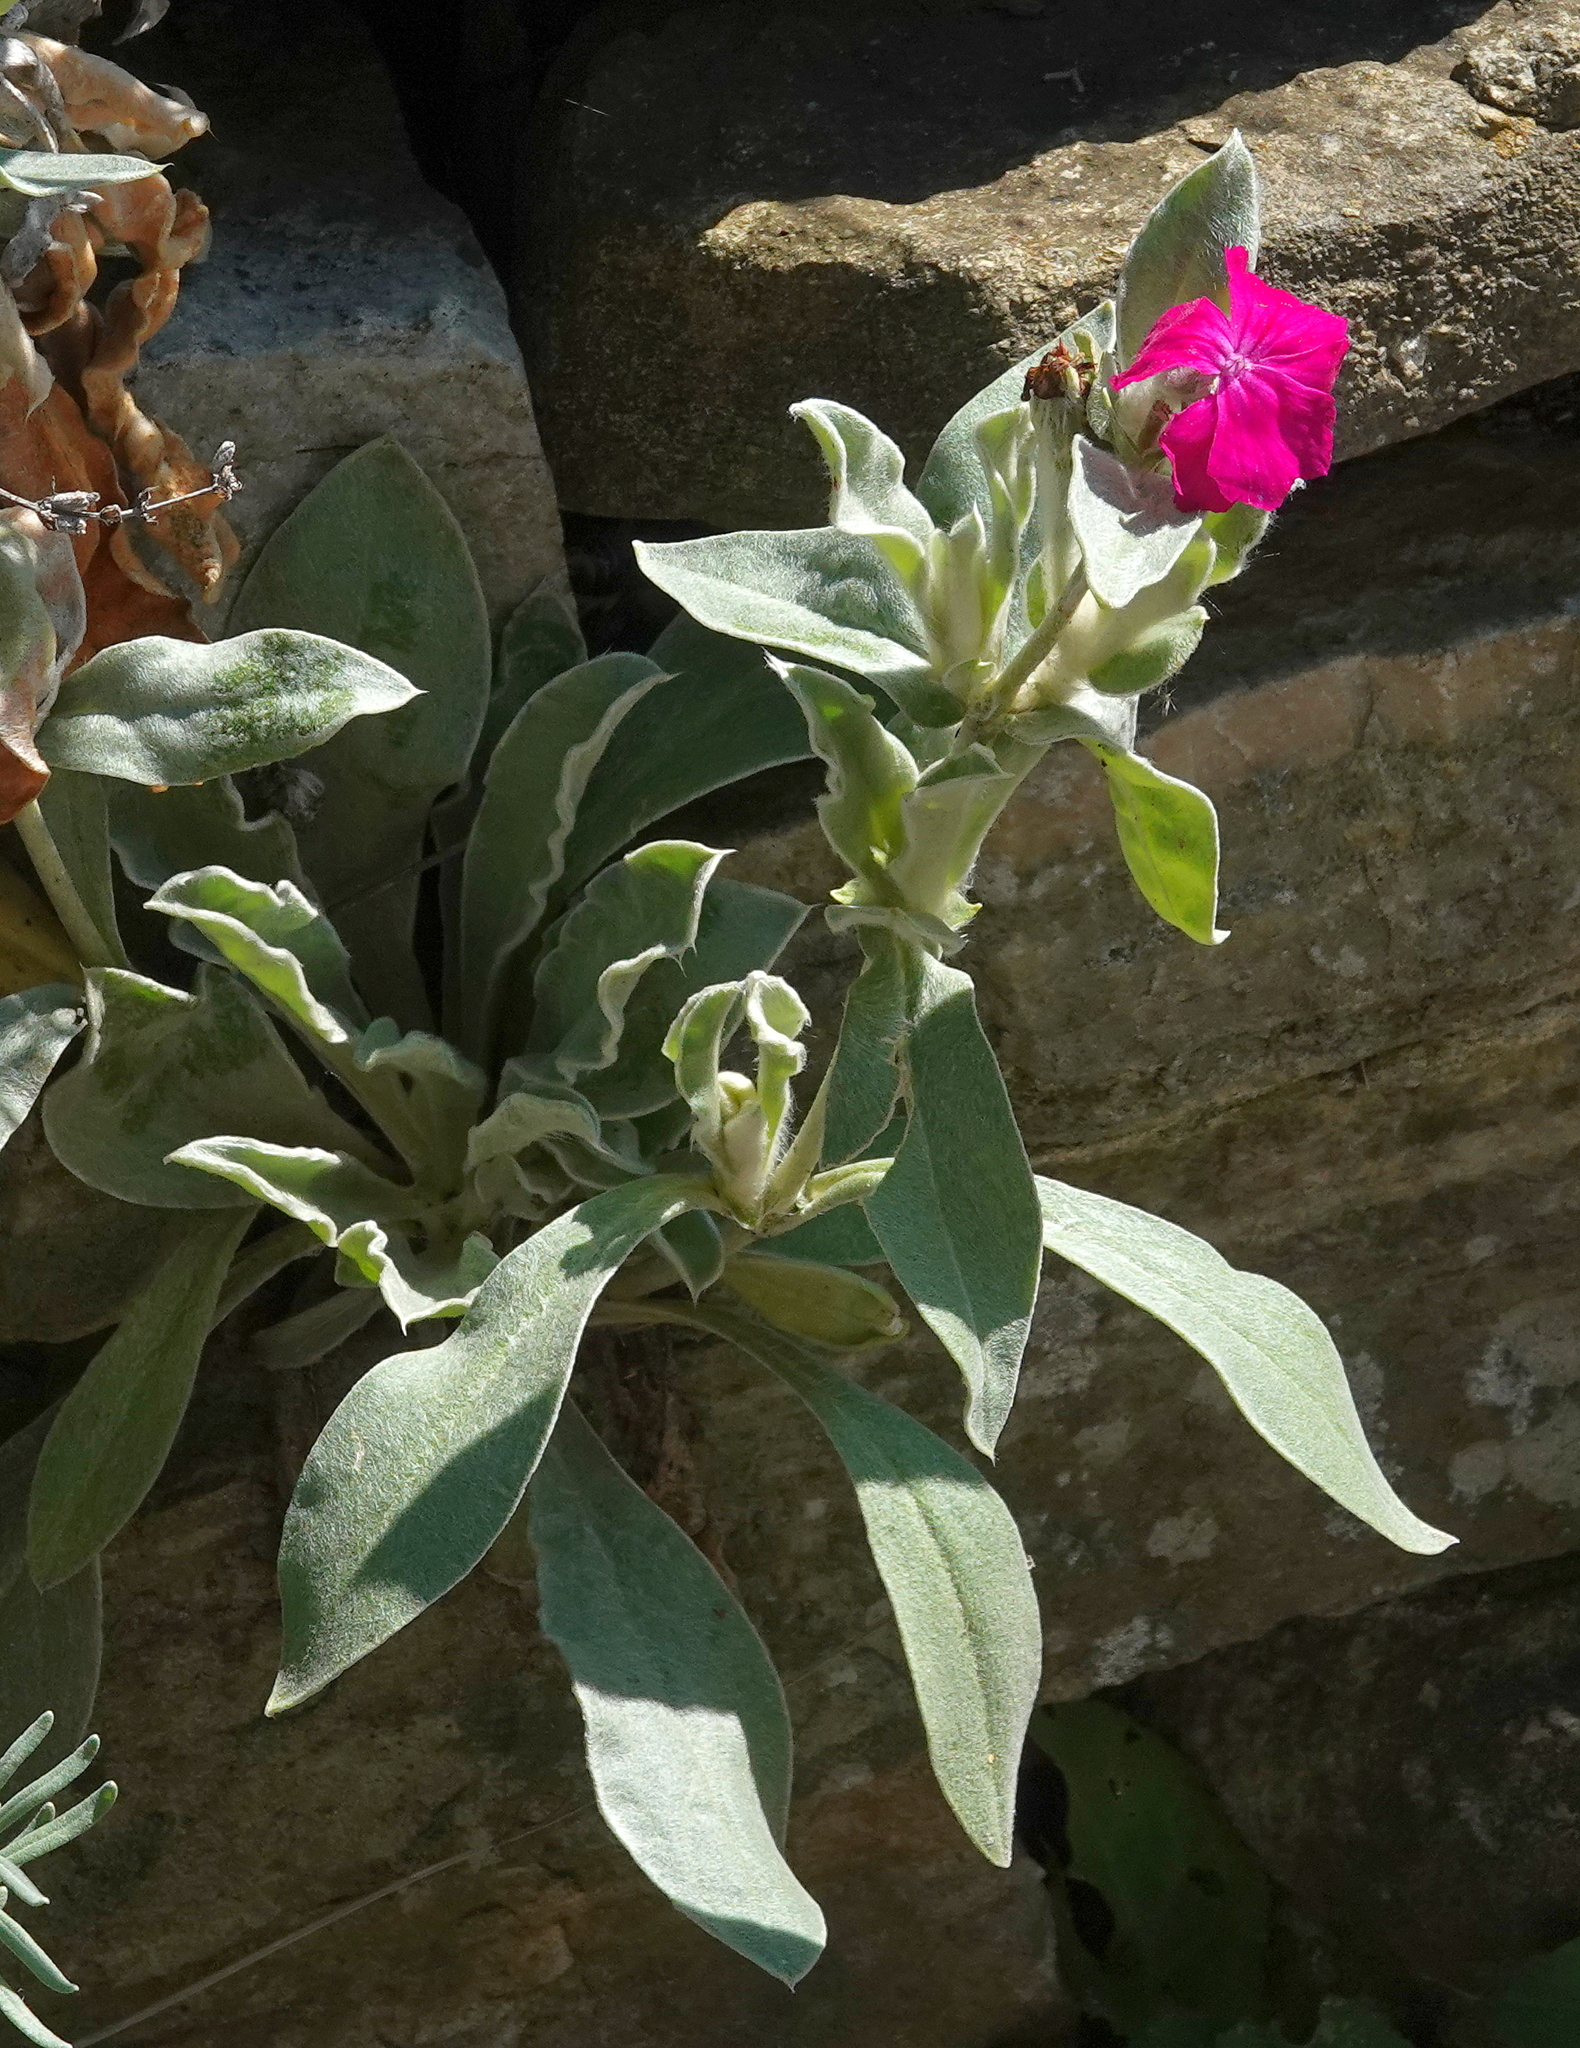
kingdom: Plantae
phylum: Tracheophyta
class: Magnoliopsida
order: Caryophyllales
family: Caryophyllaceae
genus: Silene
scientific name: Silene coronaria
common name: Rose campion
